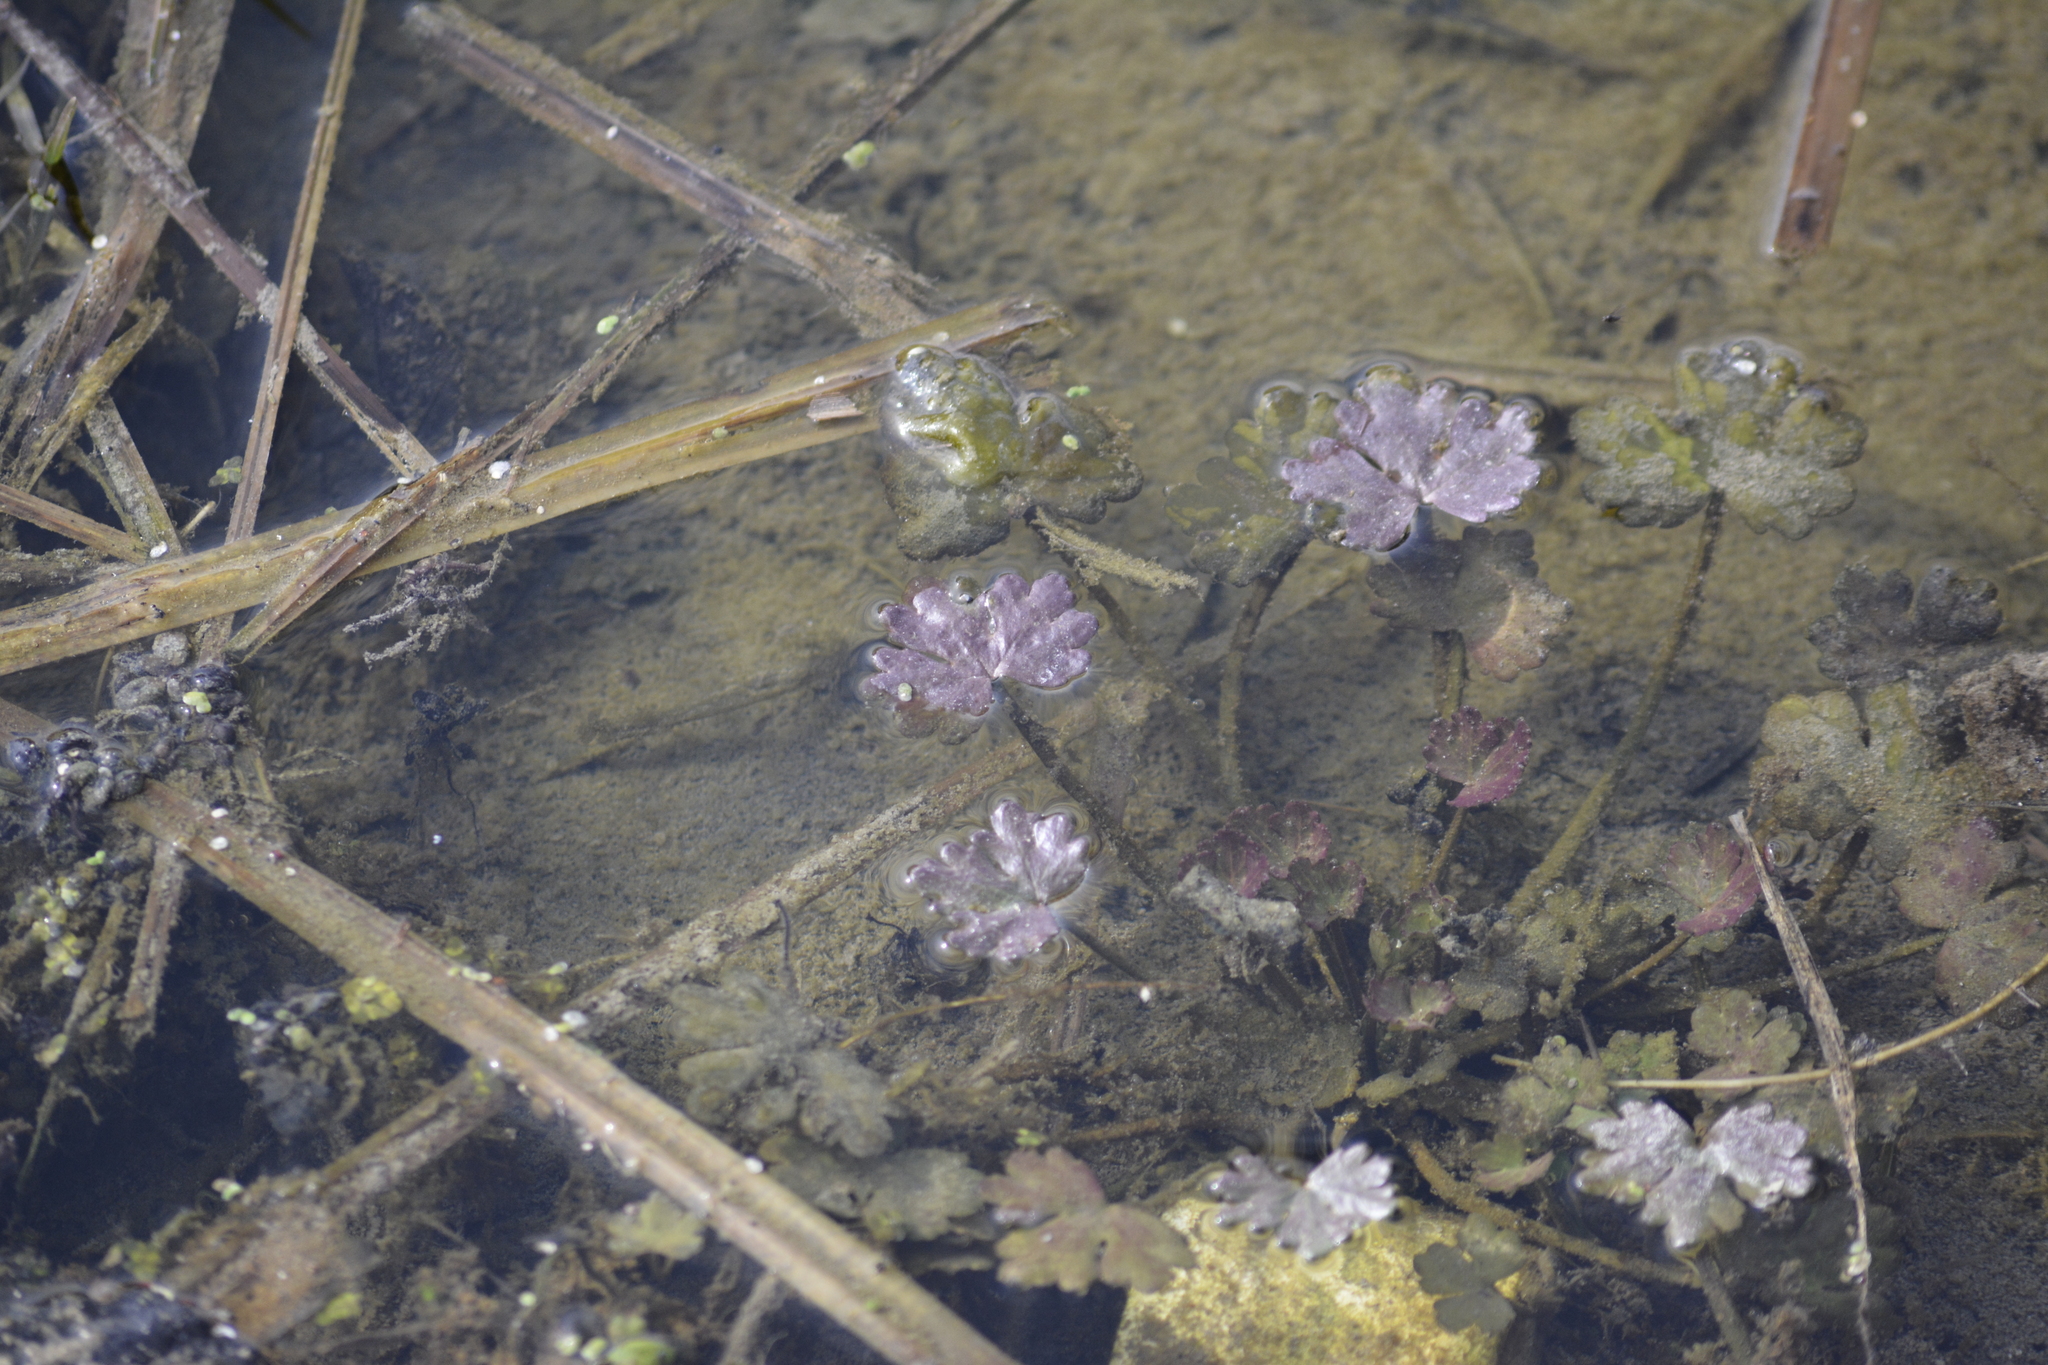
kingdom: Plantae
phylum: Tracheophyta
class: Magnoliopsida
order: Ranunculales
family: Ranunculaceae
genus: Ranunculus
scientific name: Ranunculus sceleratus
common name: Celery-leaved buttercup
